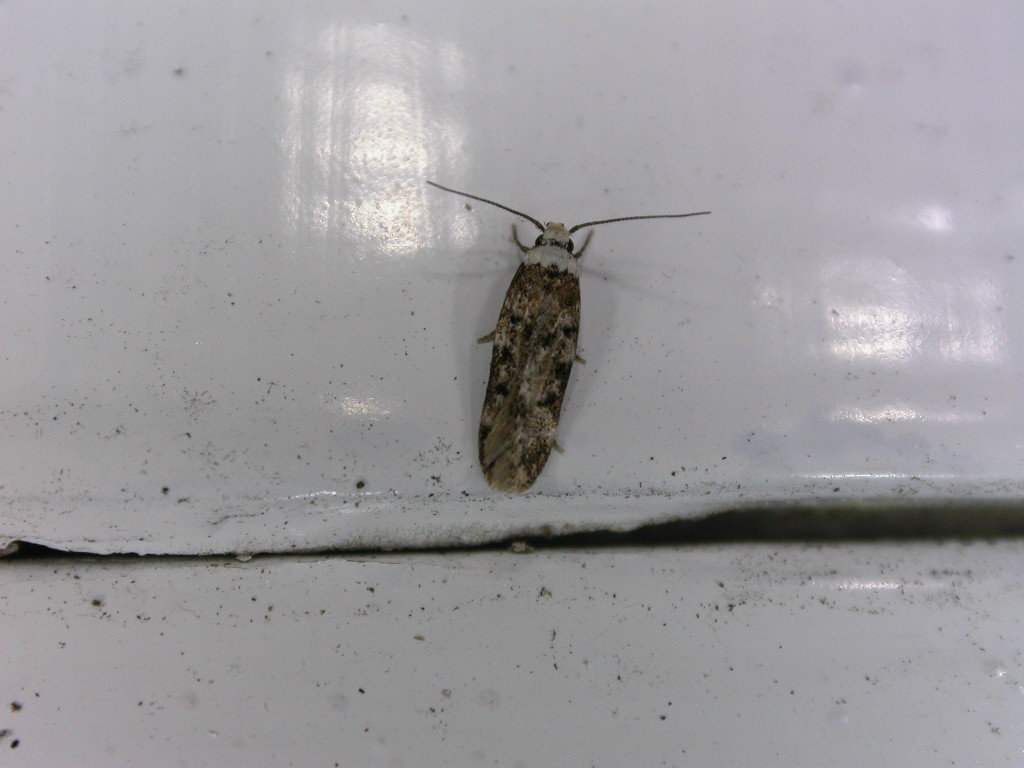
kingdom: Animalia
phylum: Arthropoda
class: Insecta
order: Lepidoptera
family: Oecophoridae
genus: Endrosis
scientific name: Endrosis sarcitrella
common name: White-shouldered house moth
